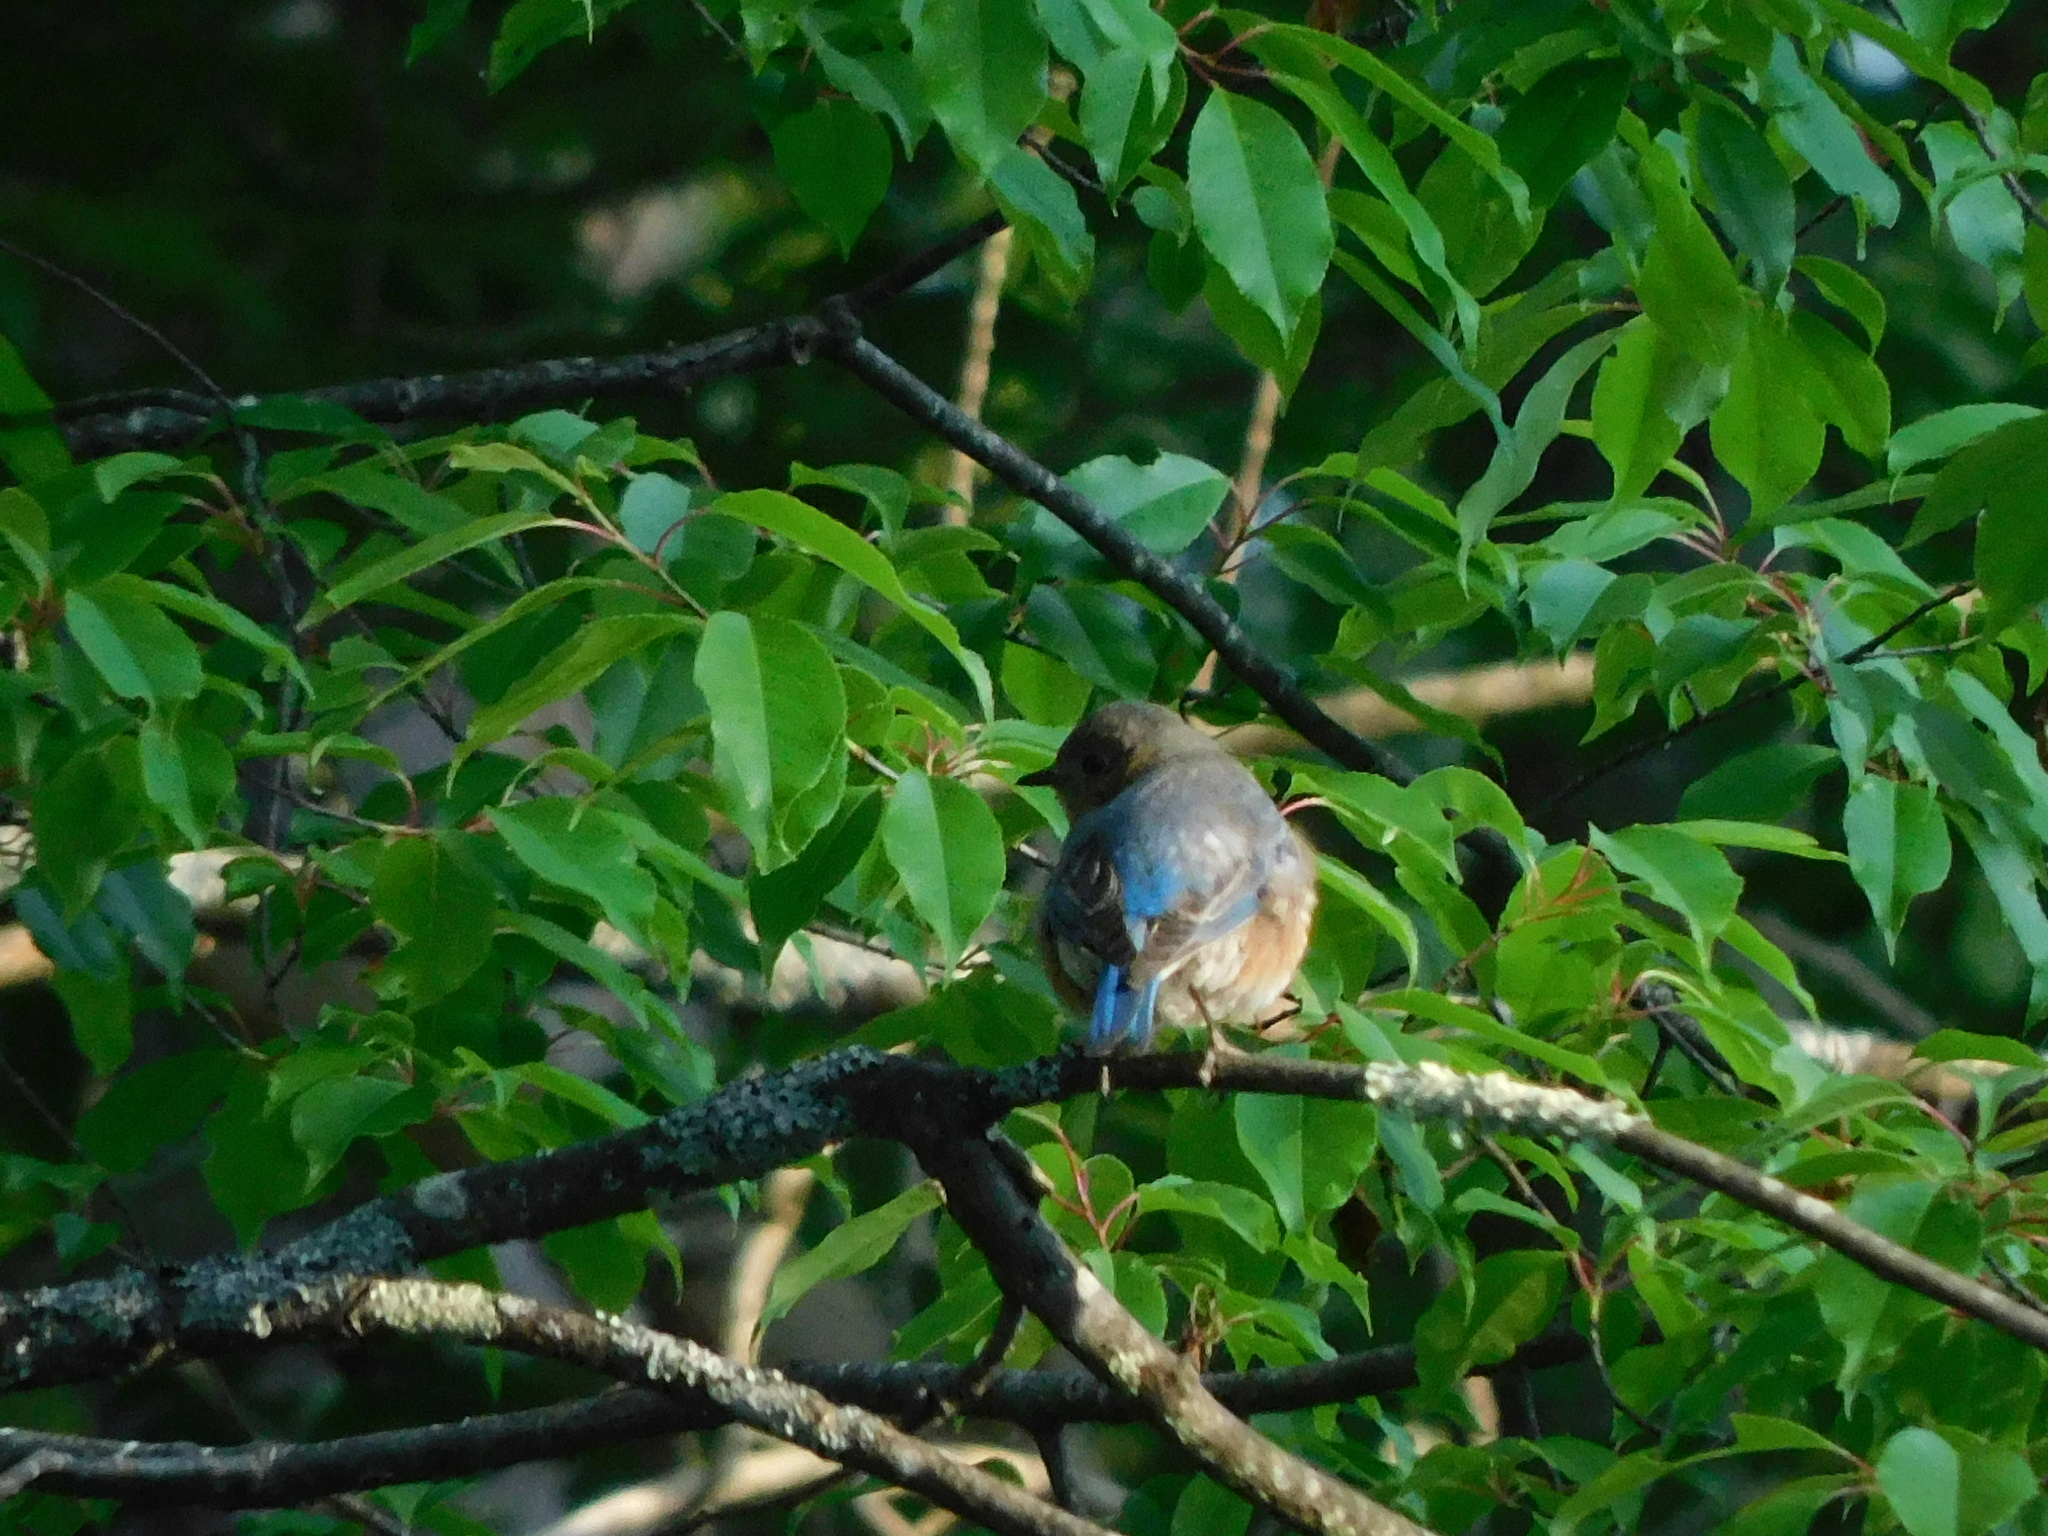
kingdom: Animalia
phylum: Chordata
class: Aves
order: Passeriformes
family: Turdidae
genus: Sialia
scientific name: Sialia sialis
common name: Eastern bluebird
